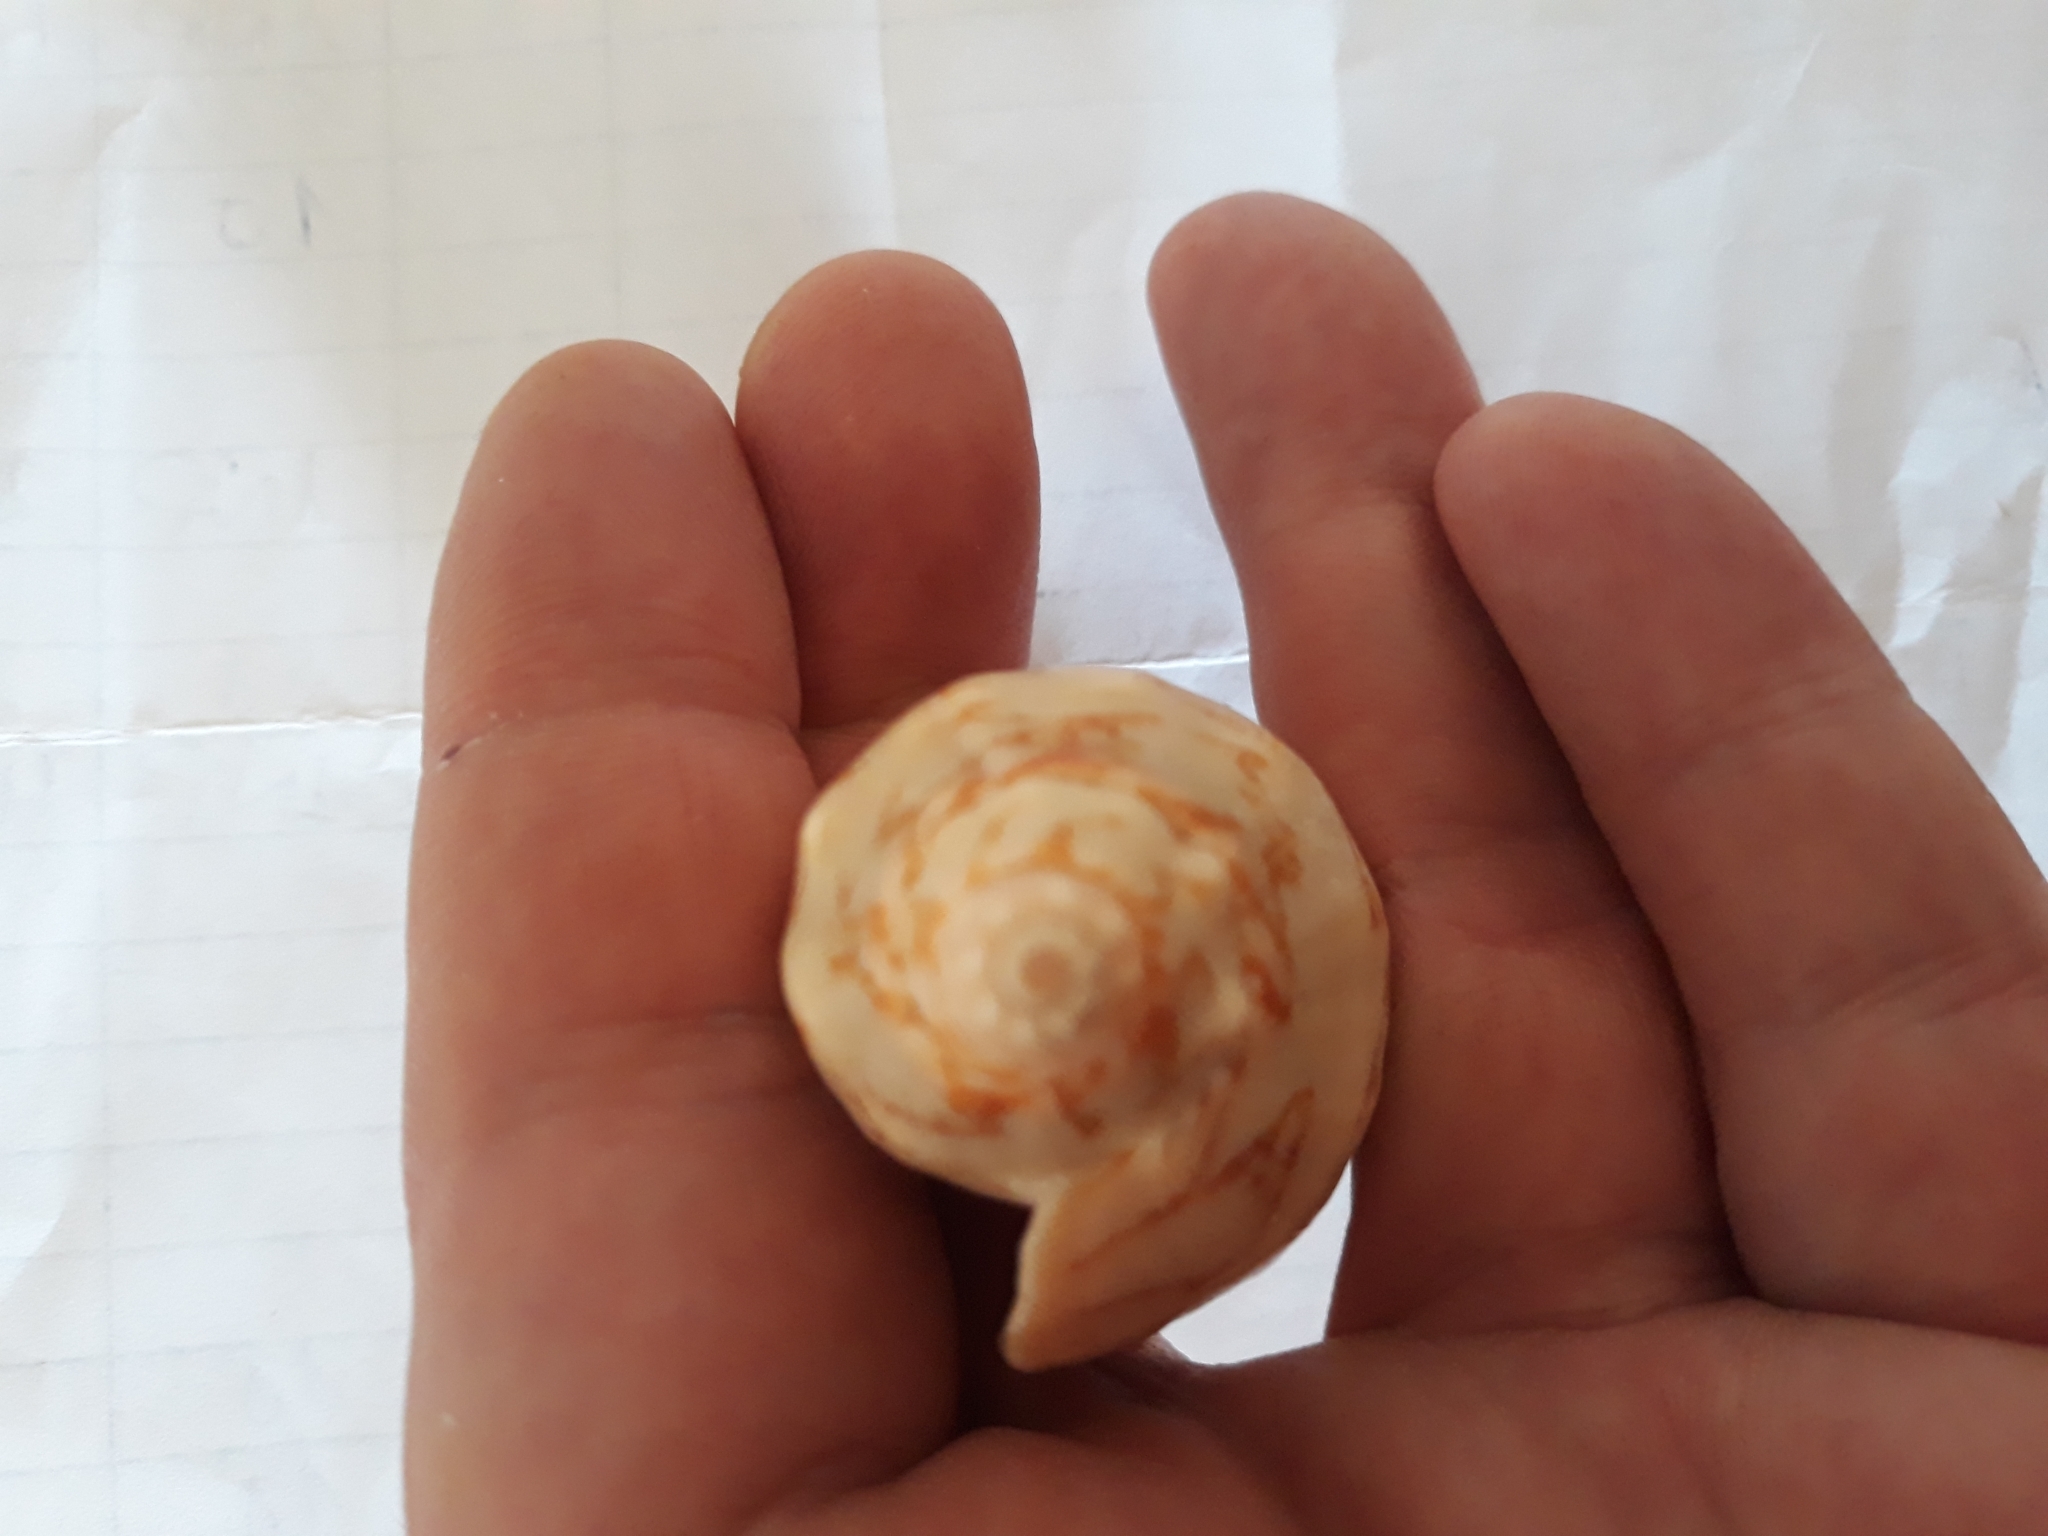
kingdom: Animalia
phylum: Mollusca
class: Gastropoda
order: Neogastropoda
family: Volutidae
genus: Cymbiola
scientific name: Cymbiola vespertilio
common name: Bat volute
